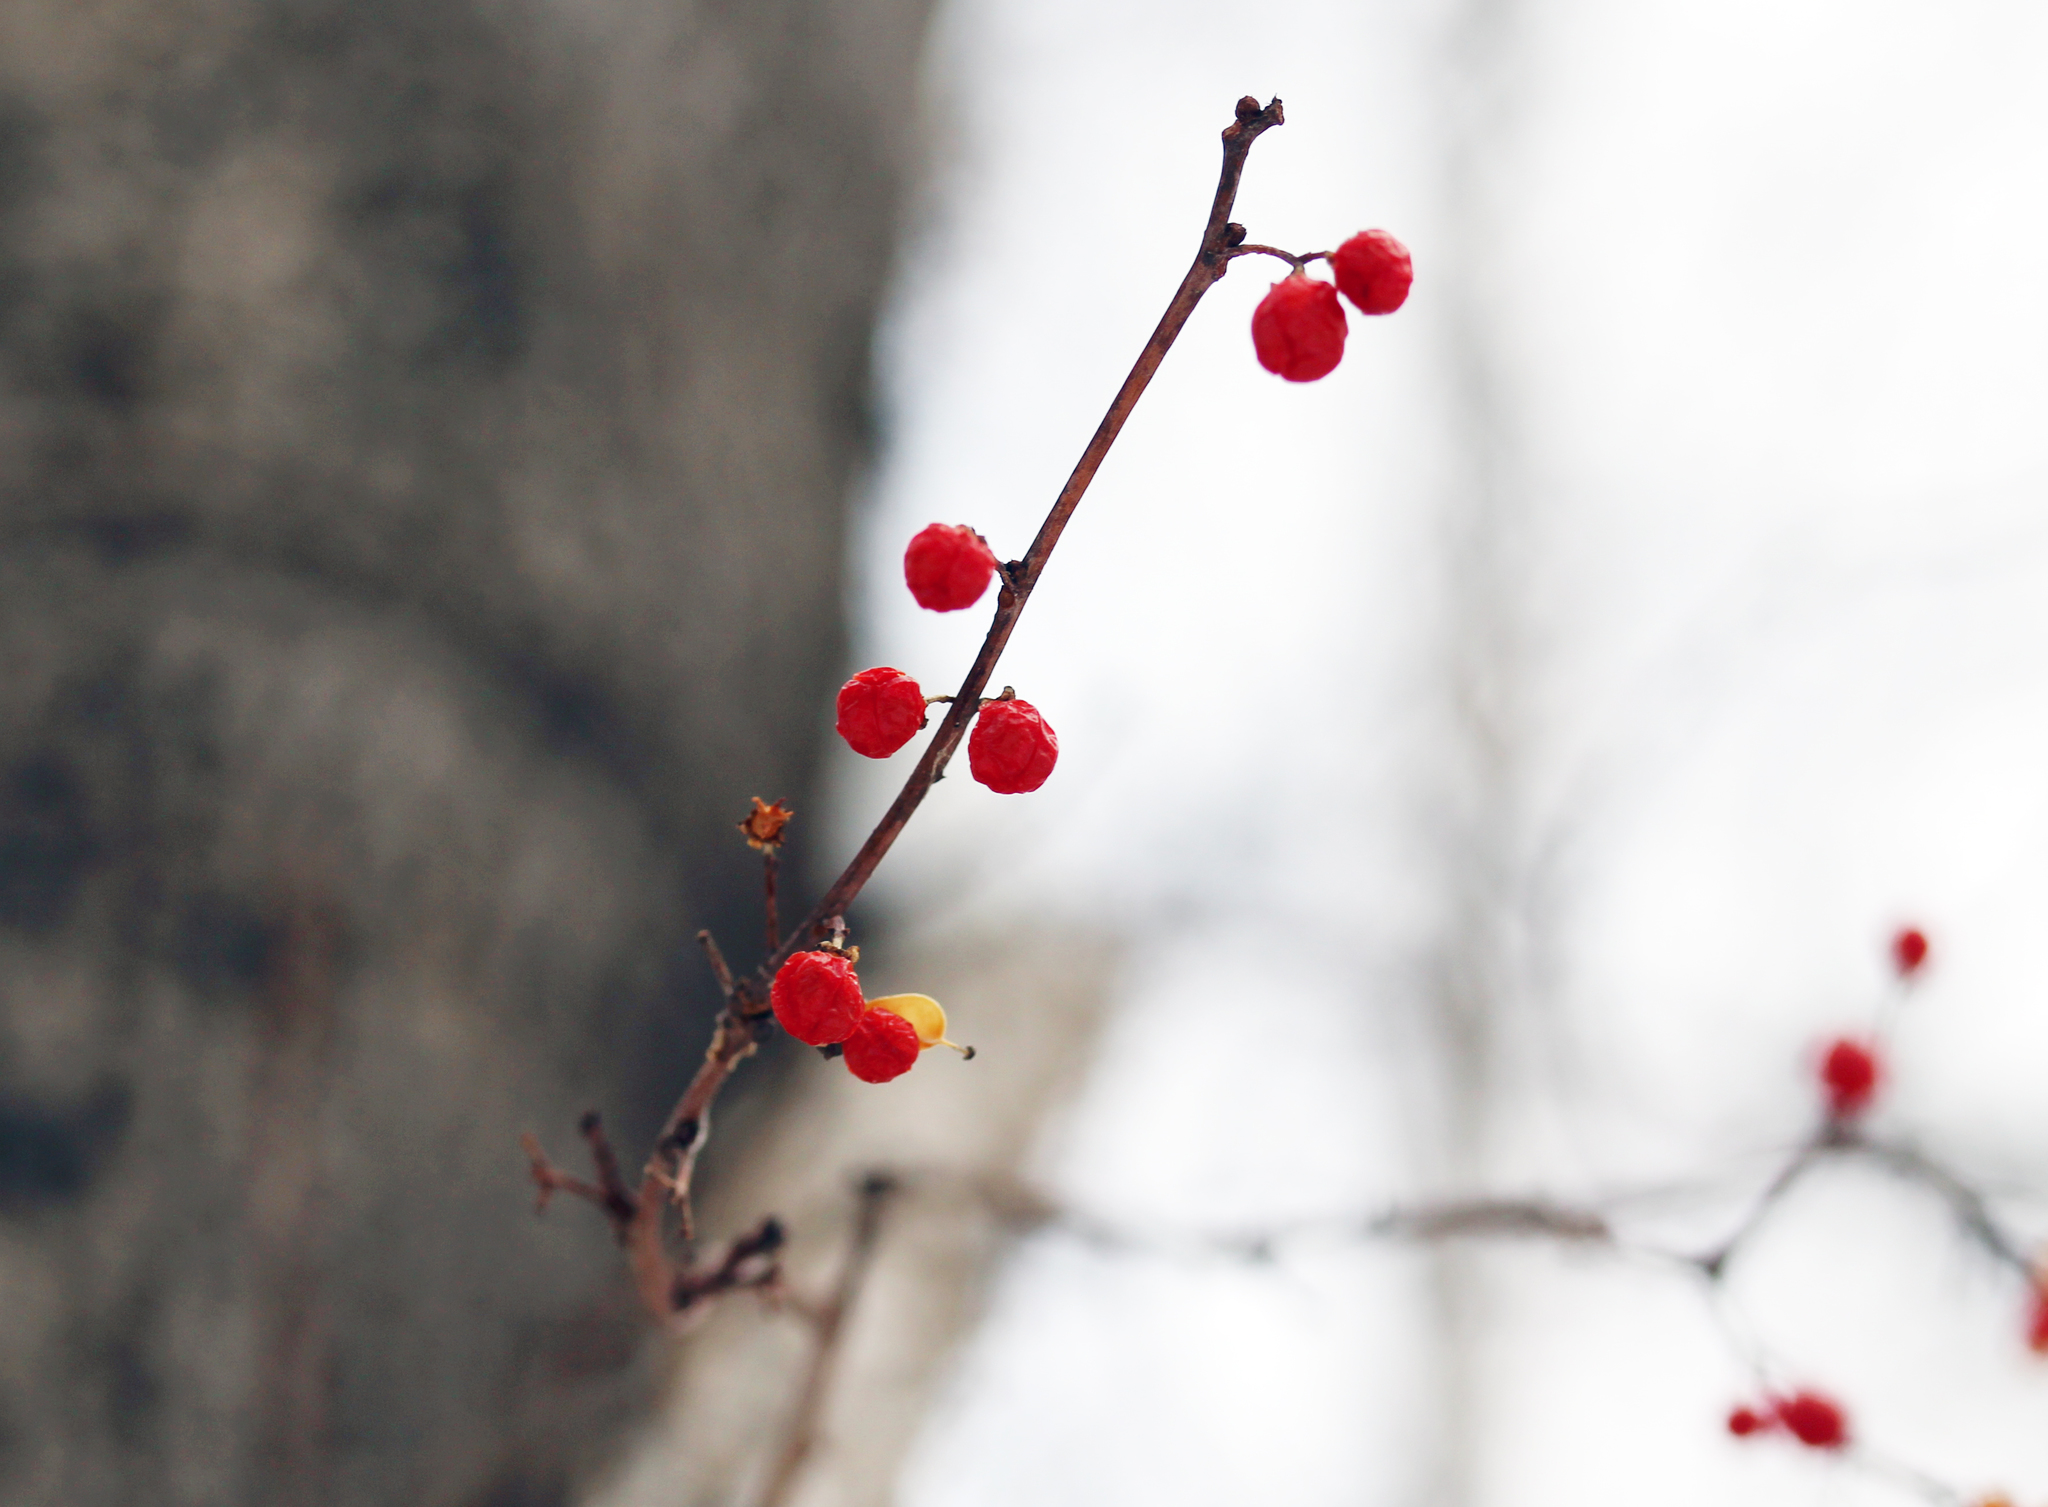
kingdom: Plantae
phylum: Tracheophyta
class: Magnoliopsida
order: Celastrales
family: Celastraceae
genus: Celastrus
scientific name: Celastrus orbiculatus
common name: Oriental bittersweet
